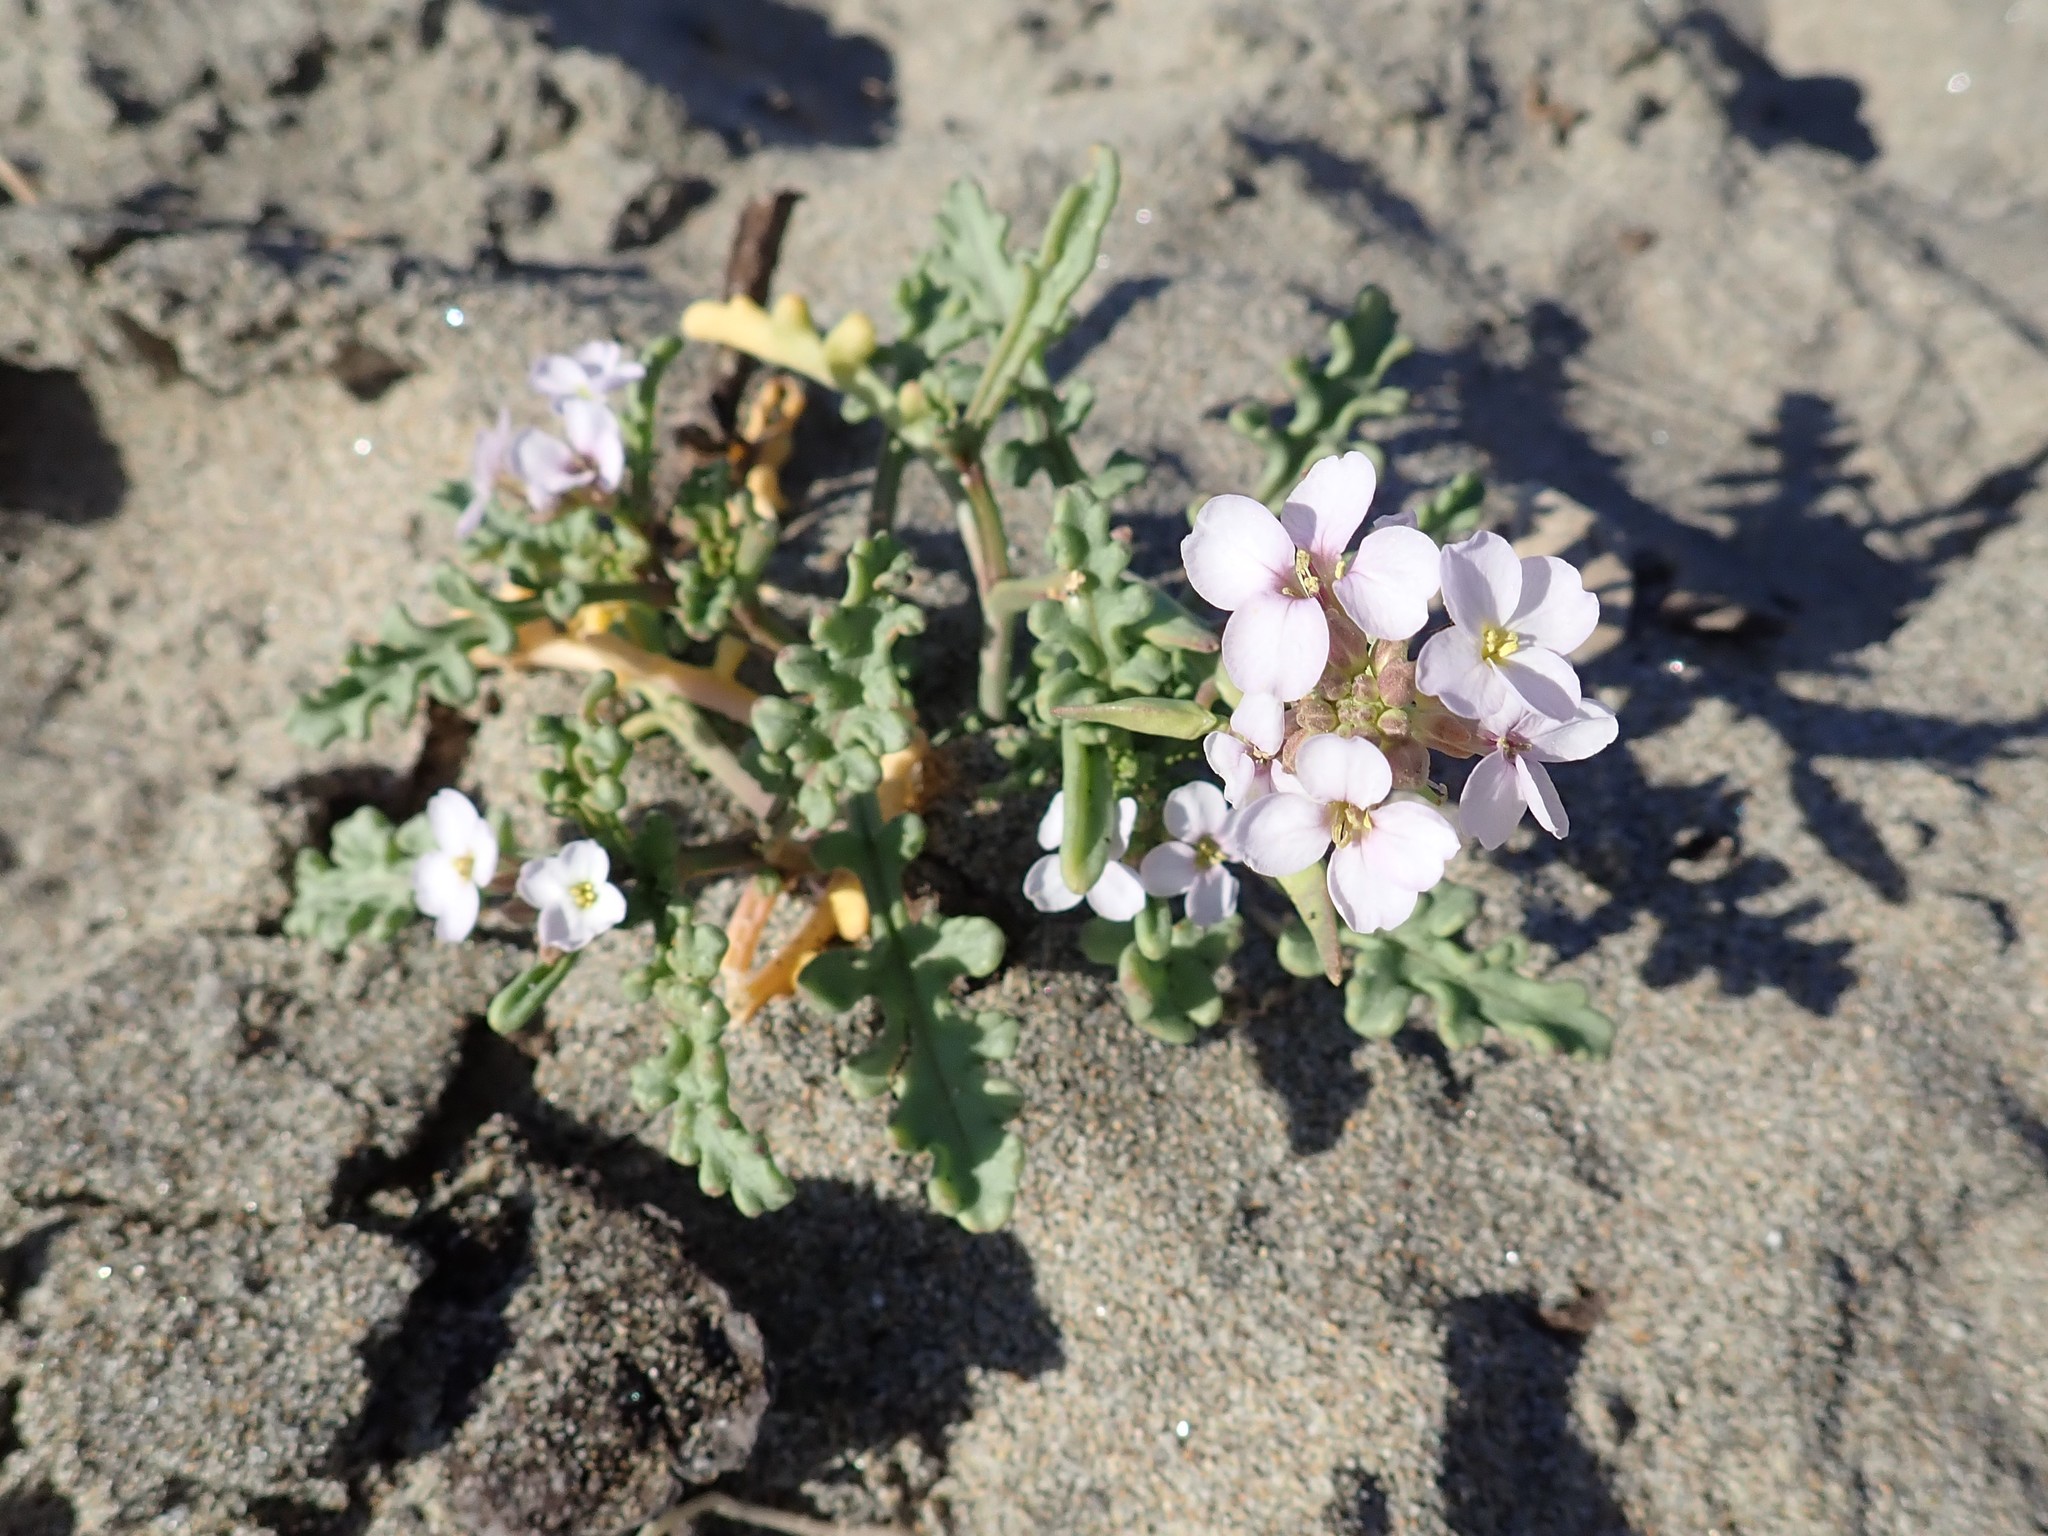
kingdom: Plantae
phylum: Tracheophyta
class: Magnoliopsida
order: Brassicales
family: Brassicaceae
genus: Cakile
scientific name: Cakile maritima
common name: Sea rocket
